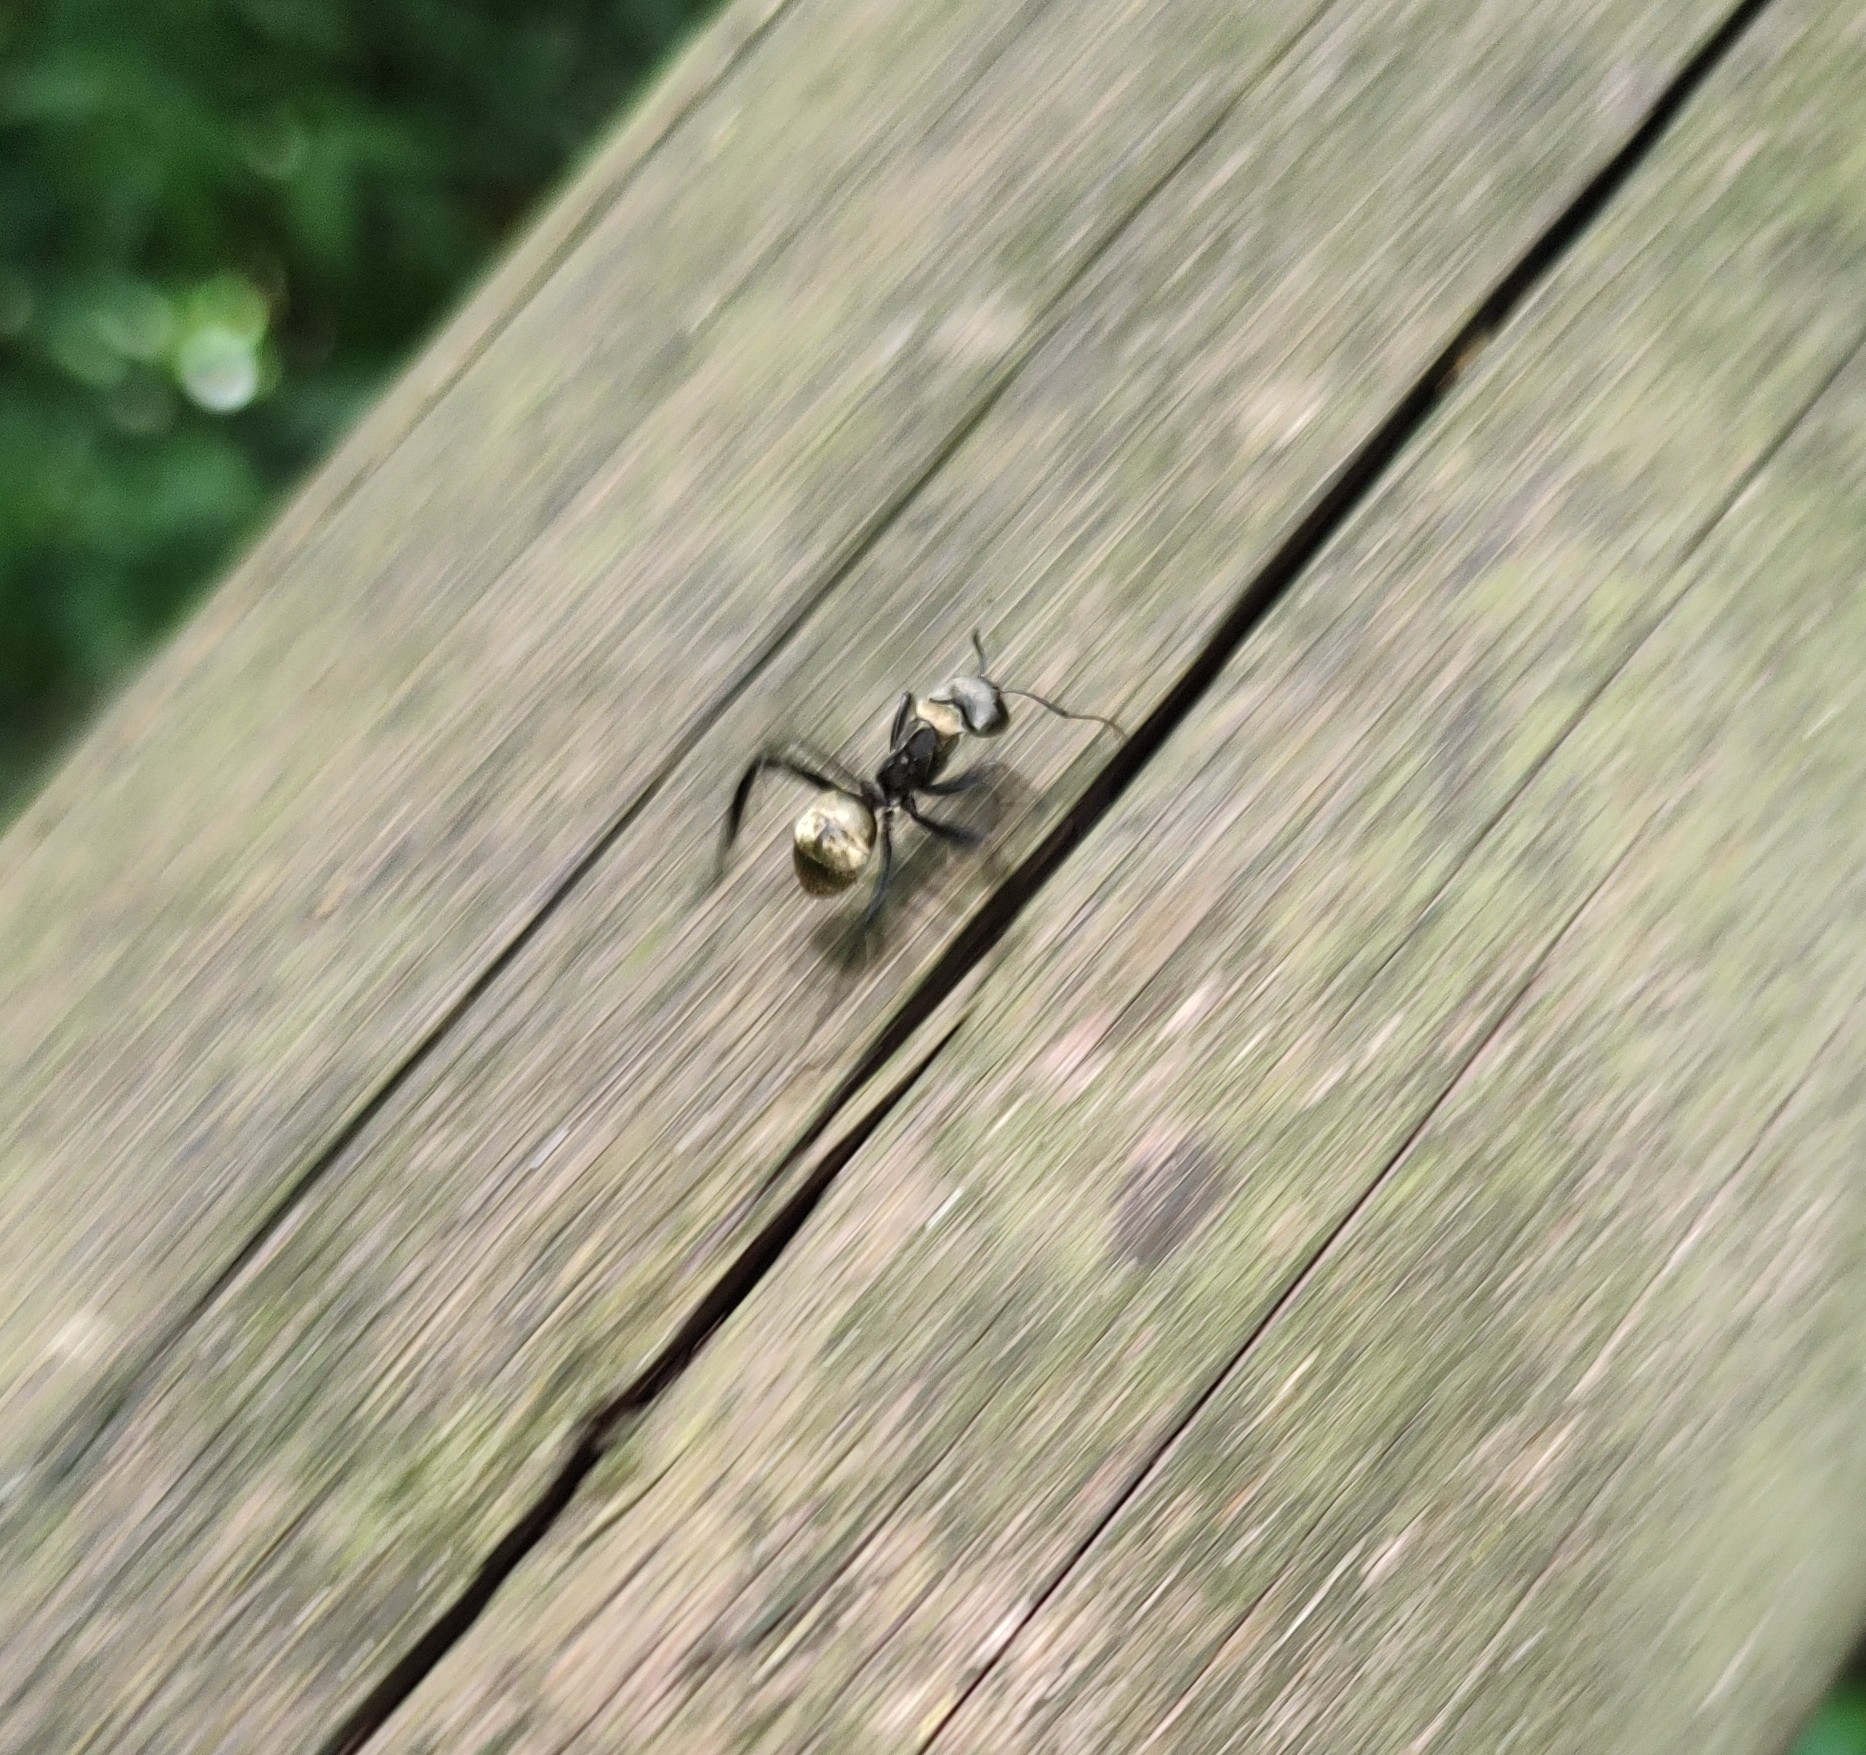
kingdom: Animalia
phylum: Arthropoda
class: Insecta
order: Hymenoptera
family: Formicidae
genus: Camponotus
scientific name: Camponotus sericeiventris
